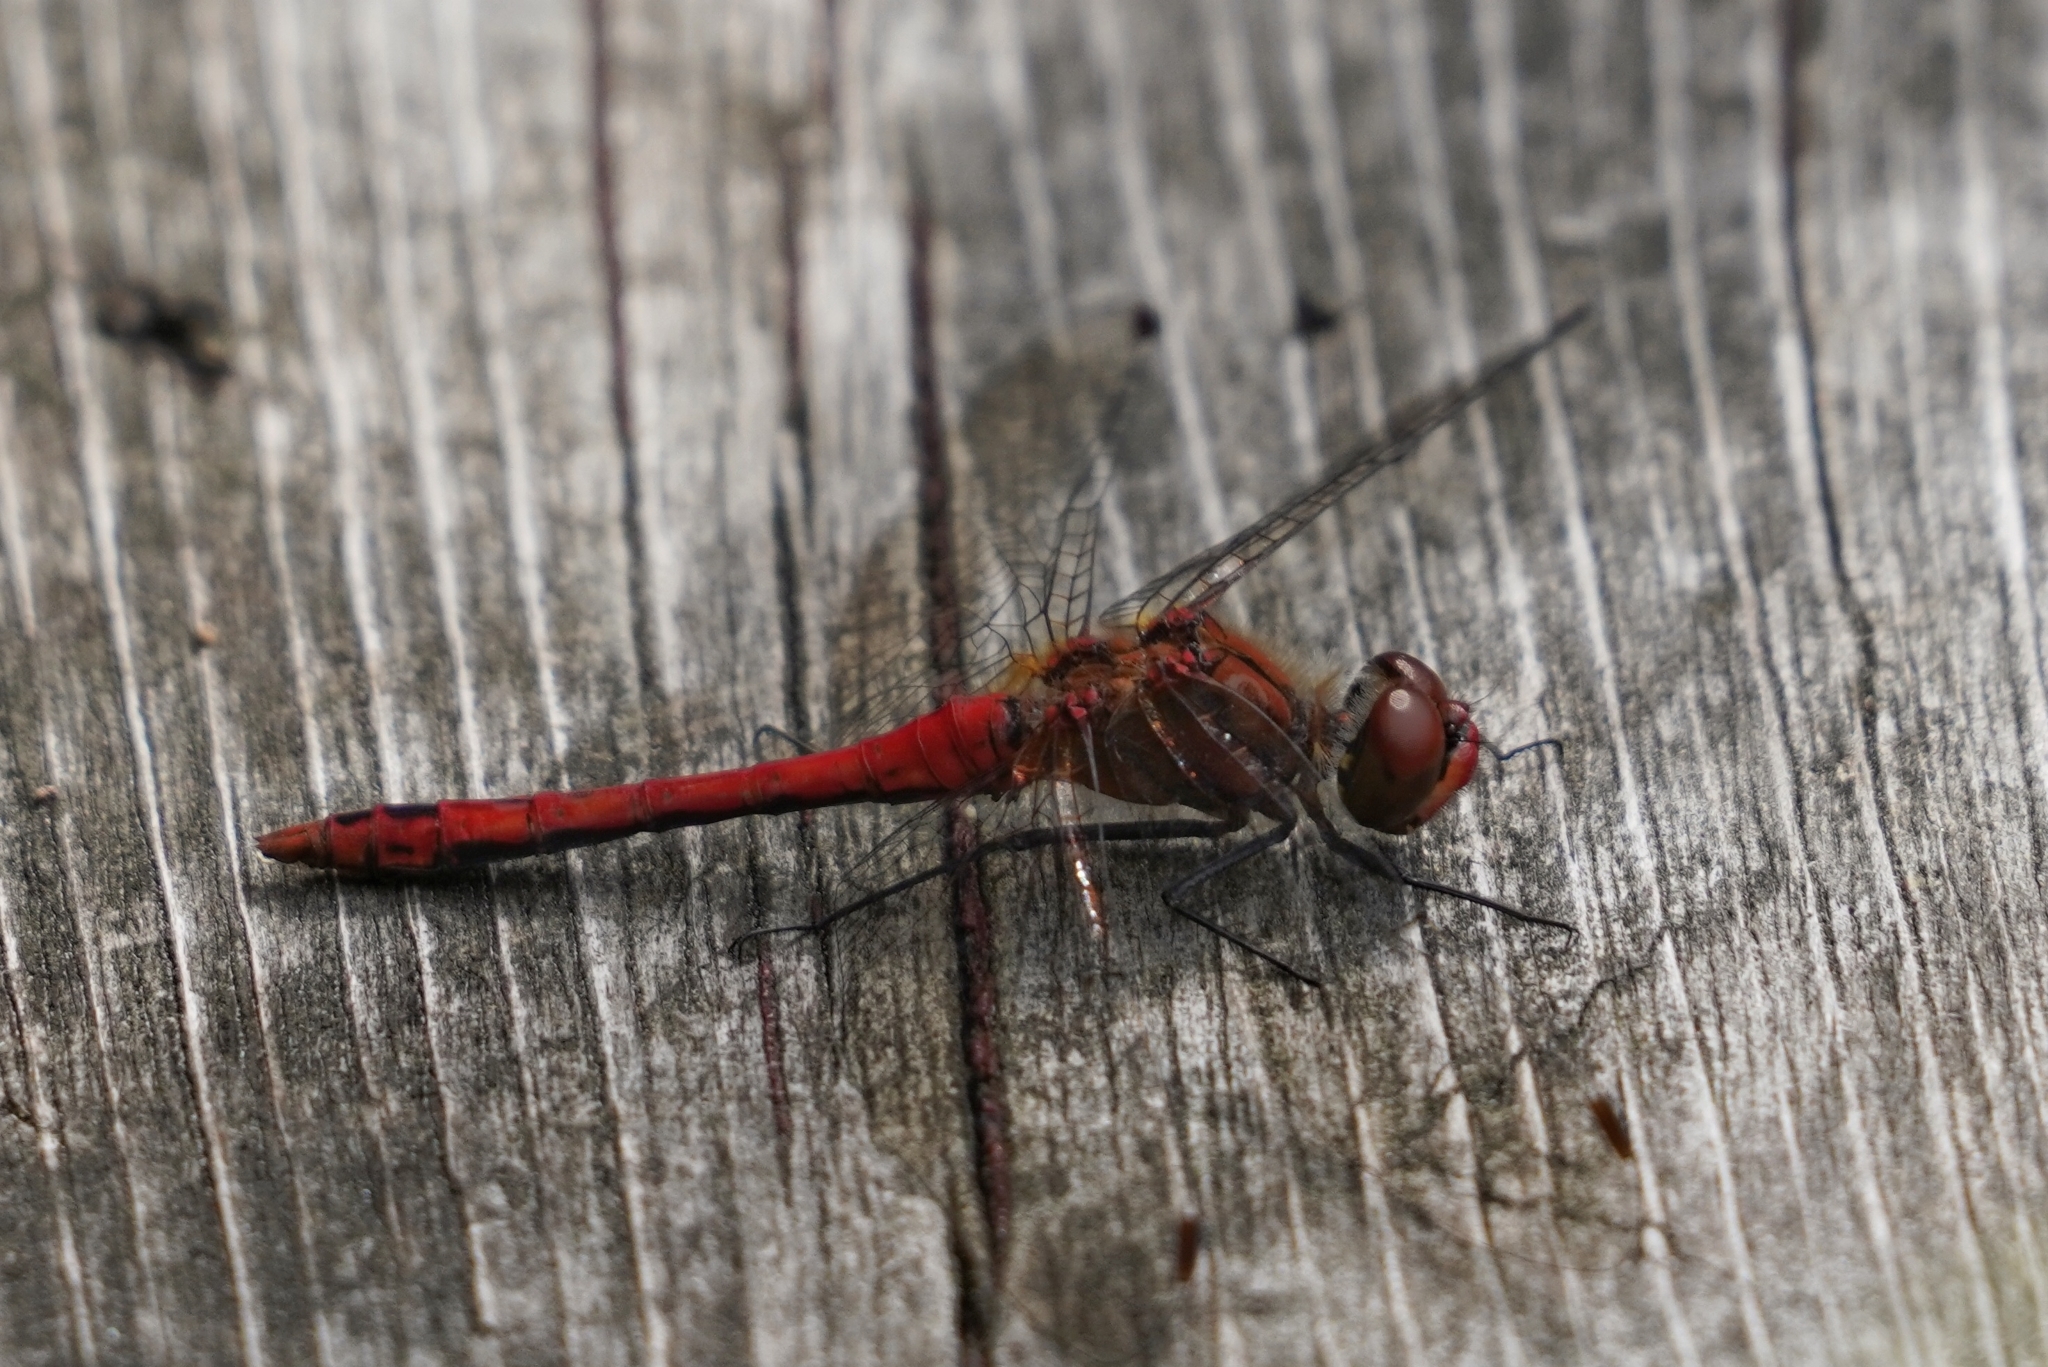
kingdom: Animalia
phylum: Arthropoda
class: Insecta
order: Odonata
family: Libellulidae
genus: Sympetrum
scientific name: Sympetrum sanguineum
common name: Ruddy darter
